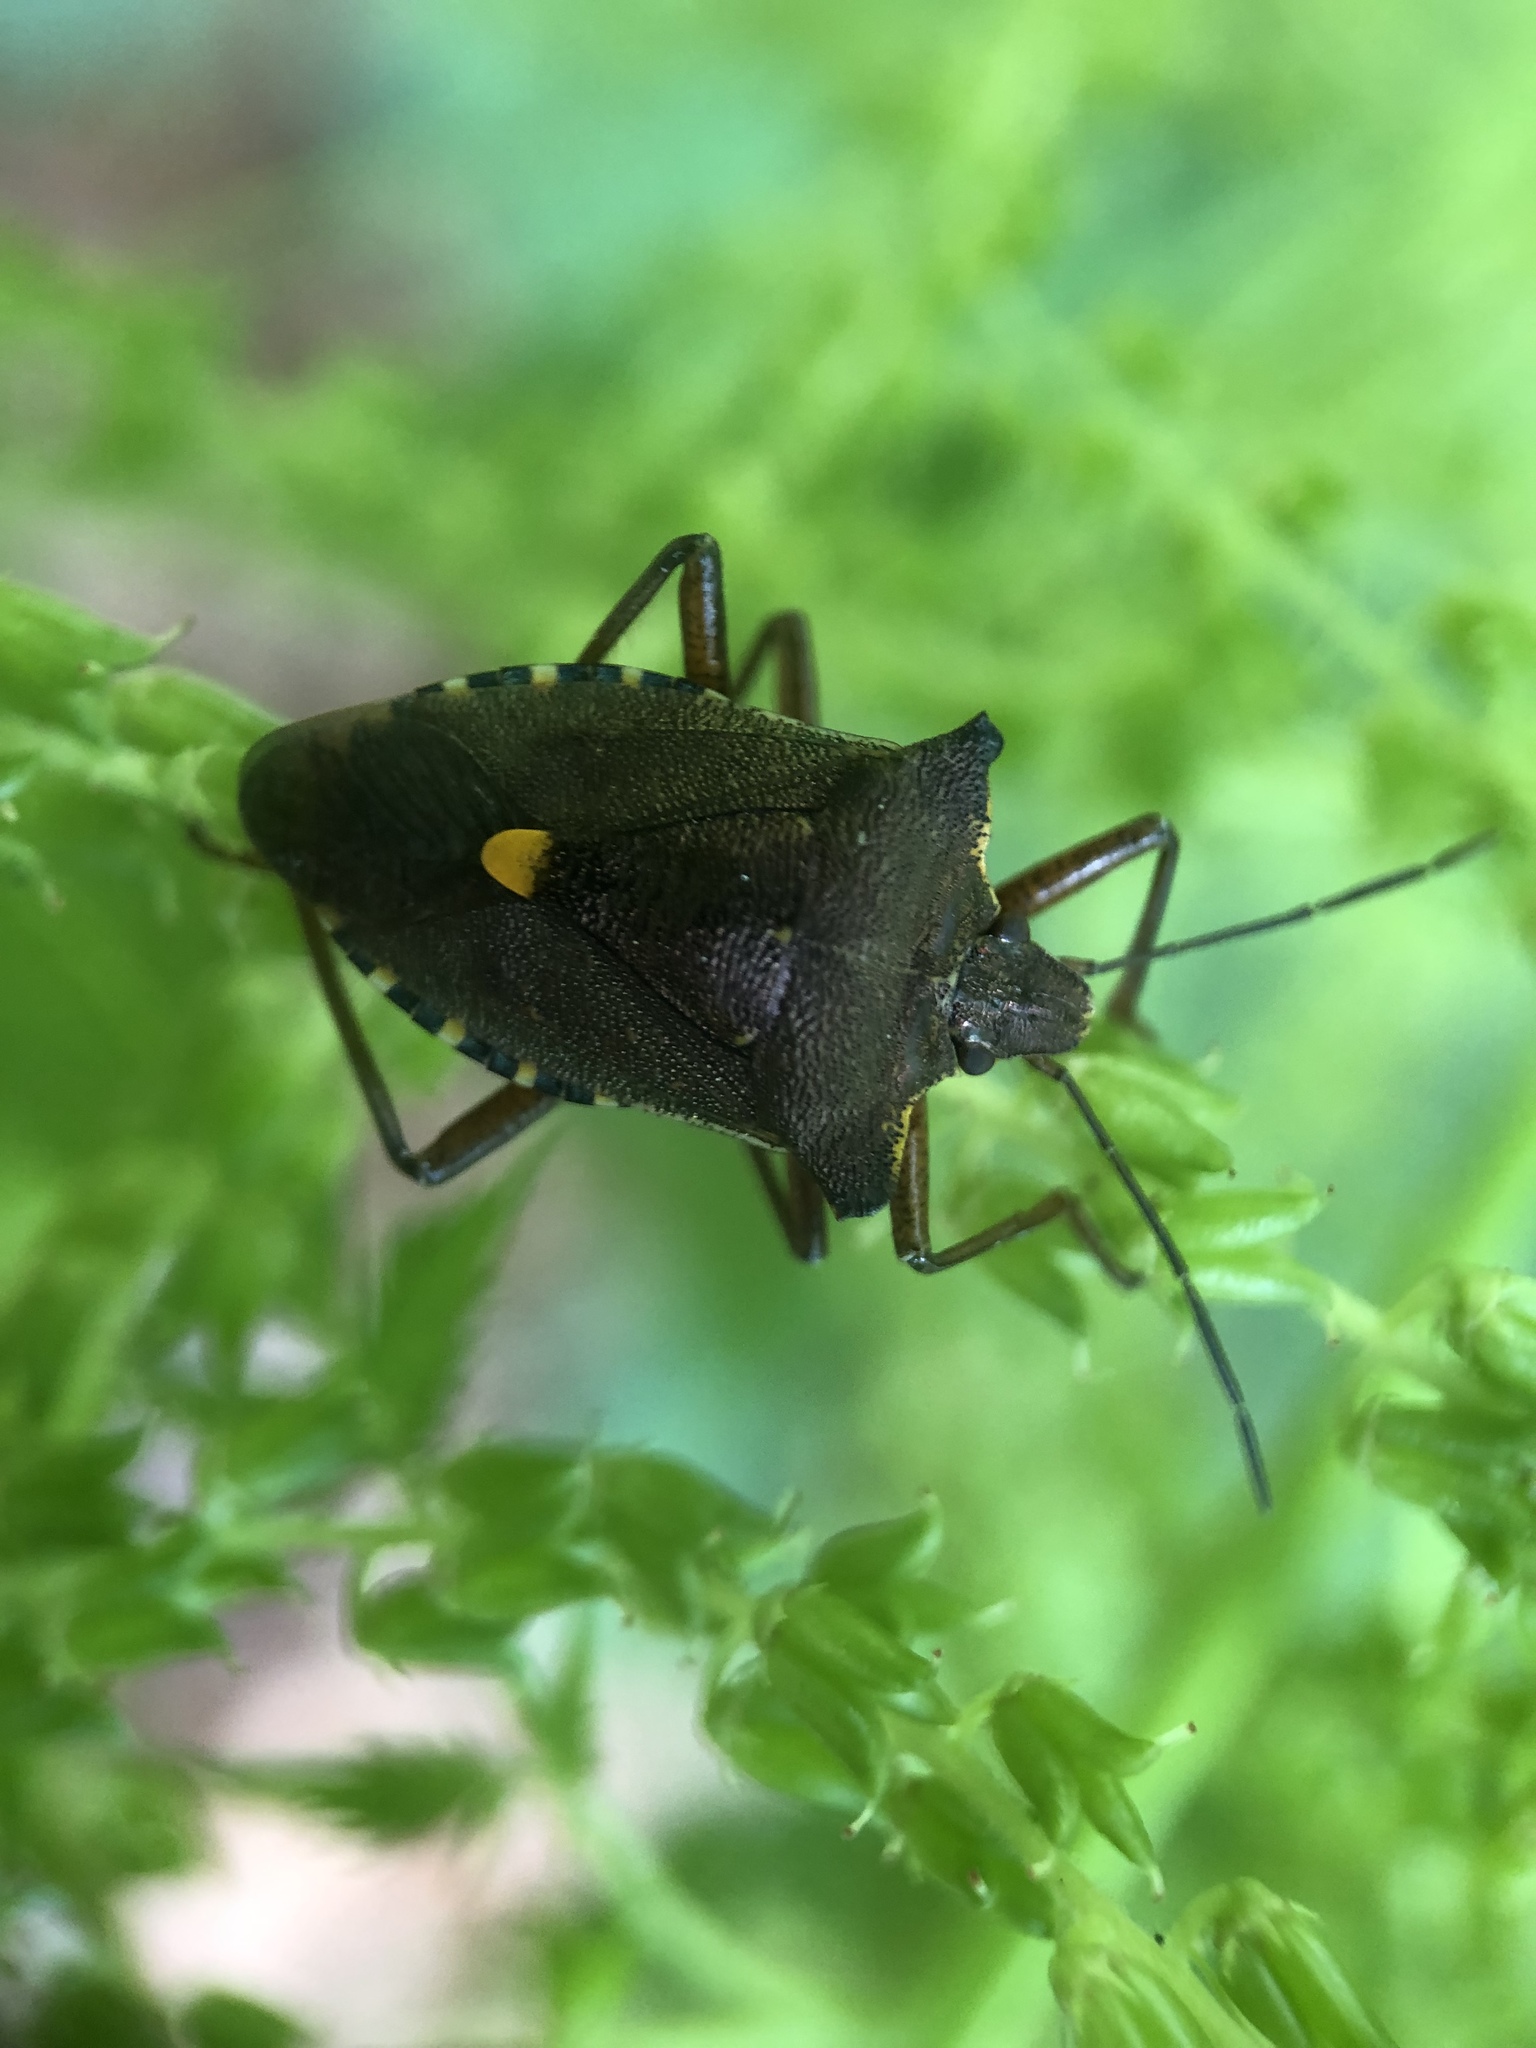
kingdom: Animalia
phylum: Arthropoda
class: Insecta
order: Hemiptera
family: Pentatomidae
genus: Pentatoma
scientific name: Pentatoma rufipes
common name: Forest bug
